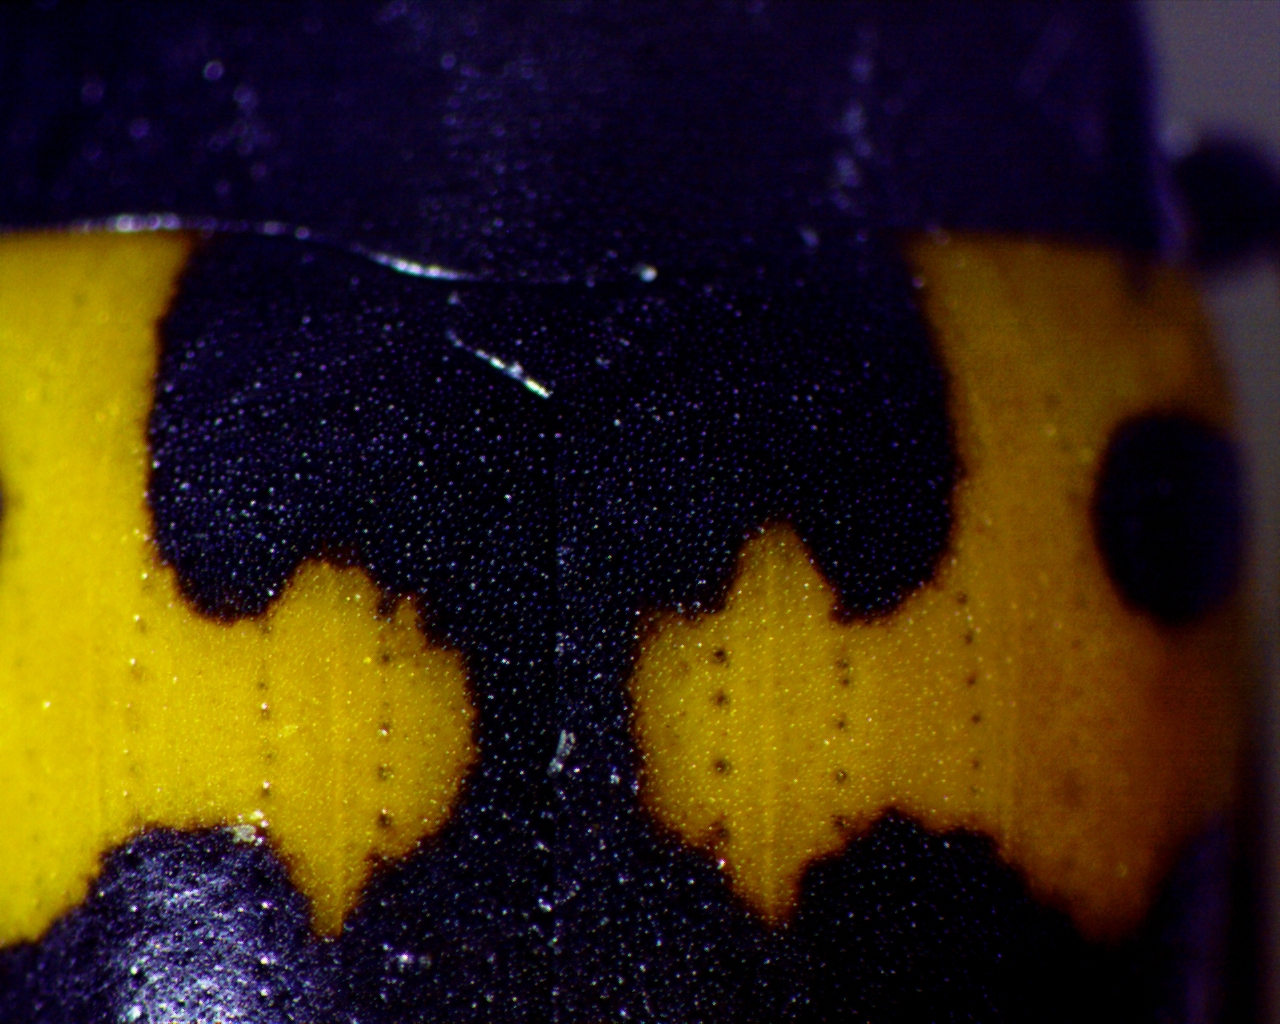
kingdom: Animalia
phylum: Arthropoda
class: Insecta
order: Coleoptera
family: Erotylidae
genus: Megalodacne
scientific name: Megalodacne fasciata
